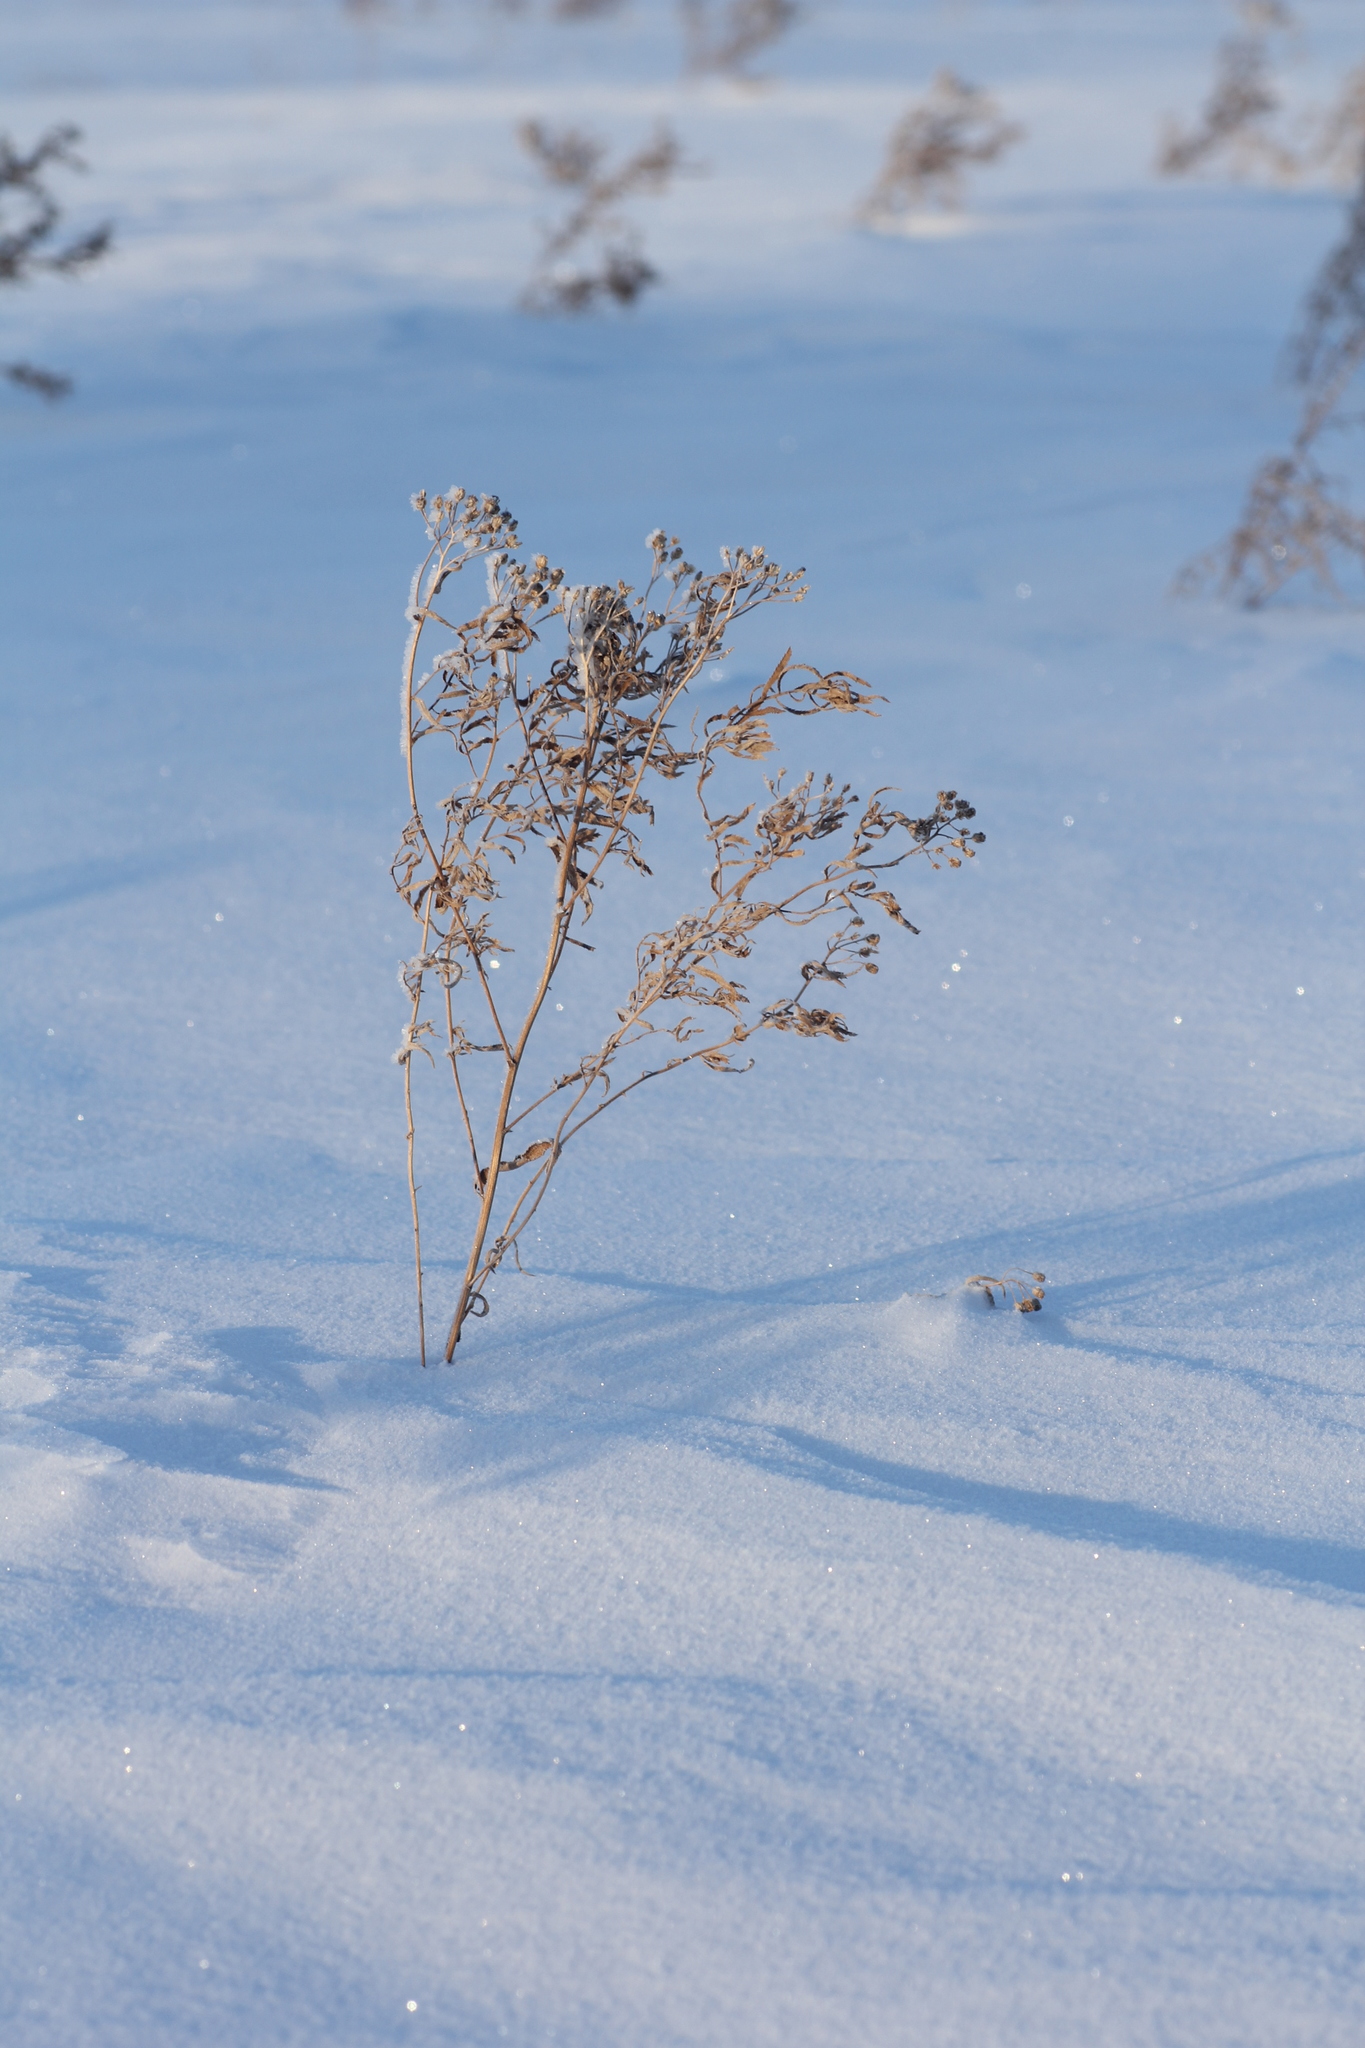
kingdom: Plantae
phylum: Tracheophyta
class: Magnoliopsida
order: Asterales
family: Asteraceae
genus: Achillea
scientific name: Achillea salicifolia
